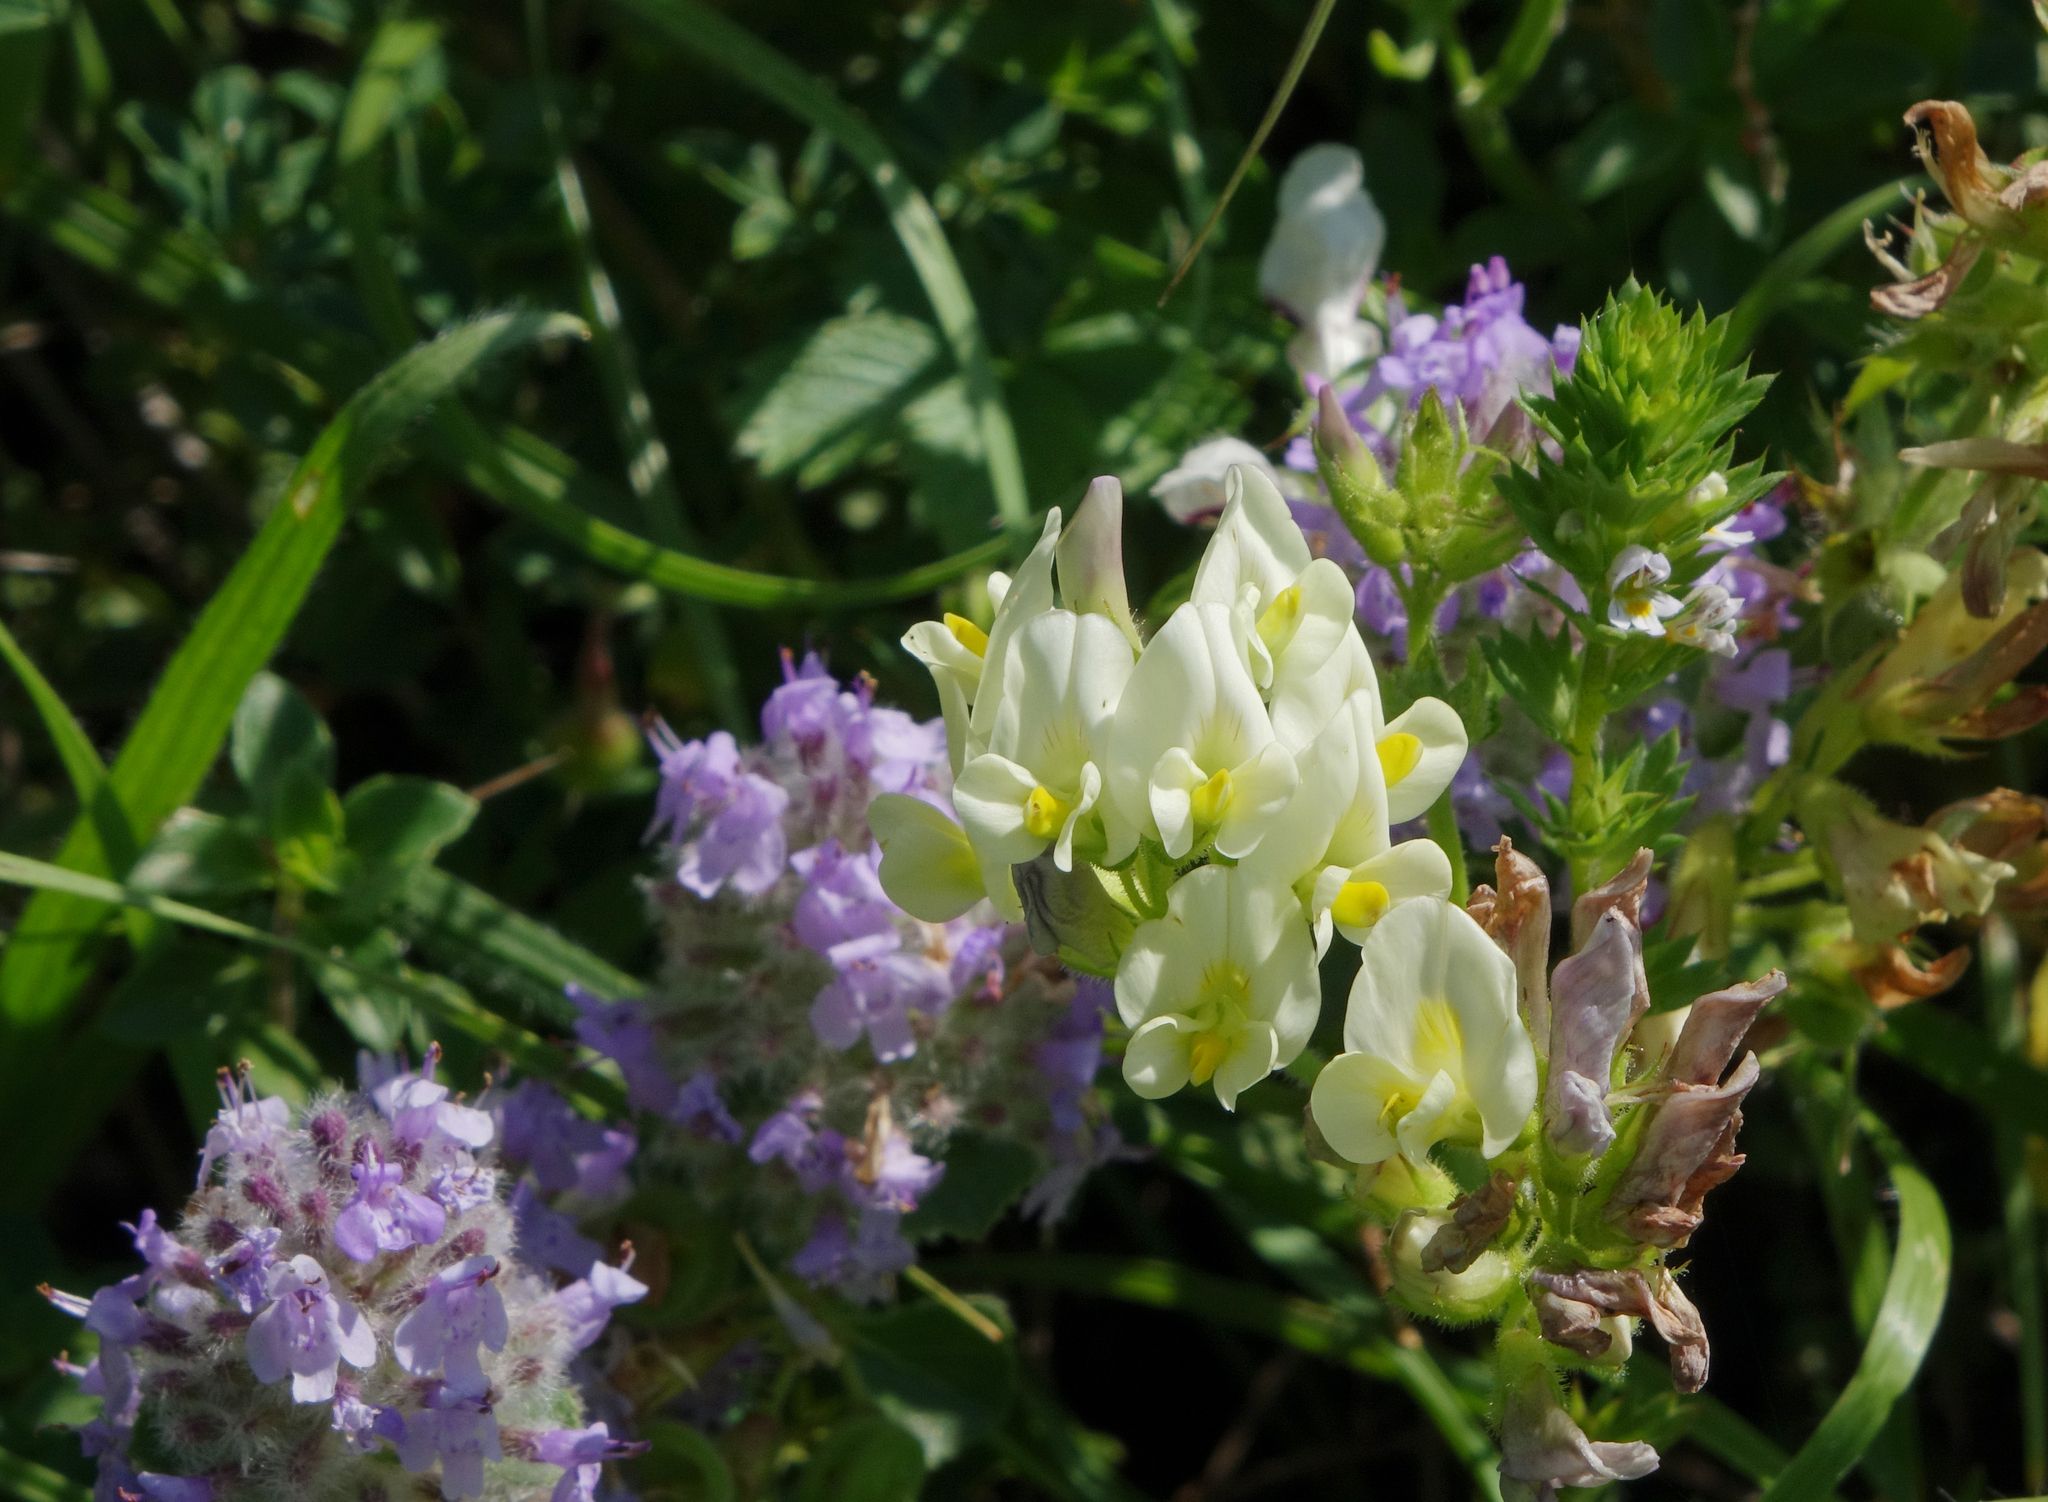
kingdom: Plantae
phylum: Tracheophyta
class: Magnoliopsida
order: Fabales
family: Fabaceae
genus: Medicago
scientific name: Medicago
